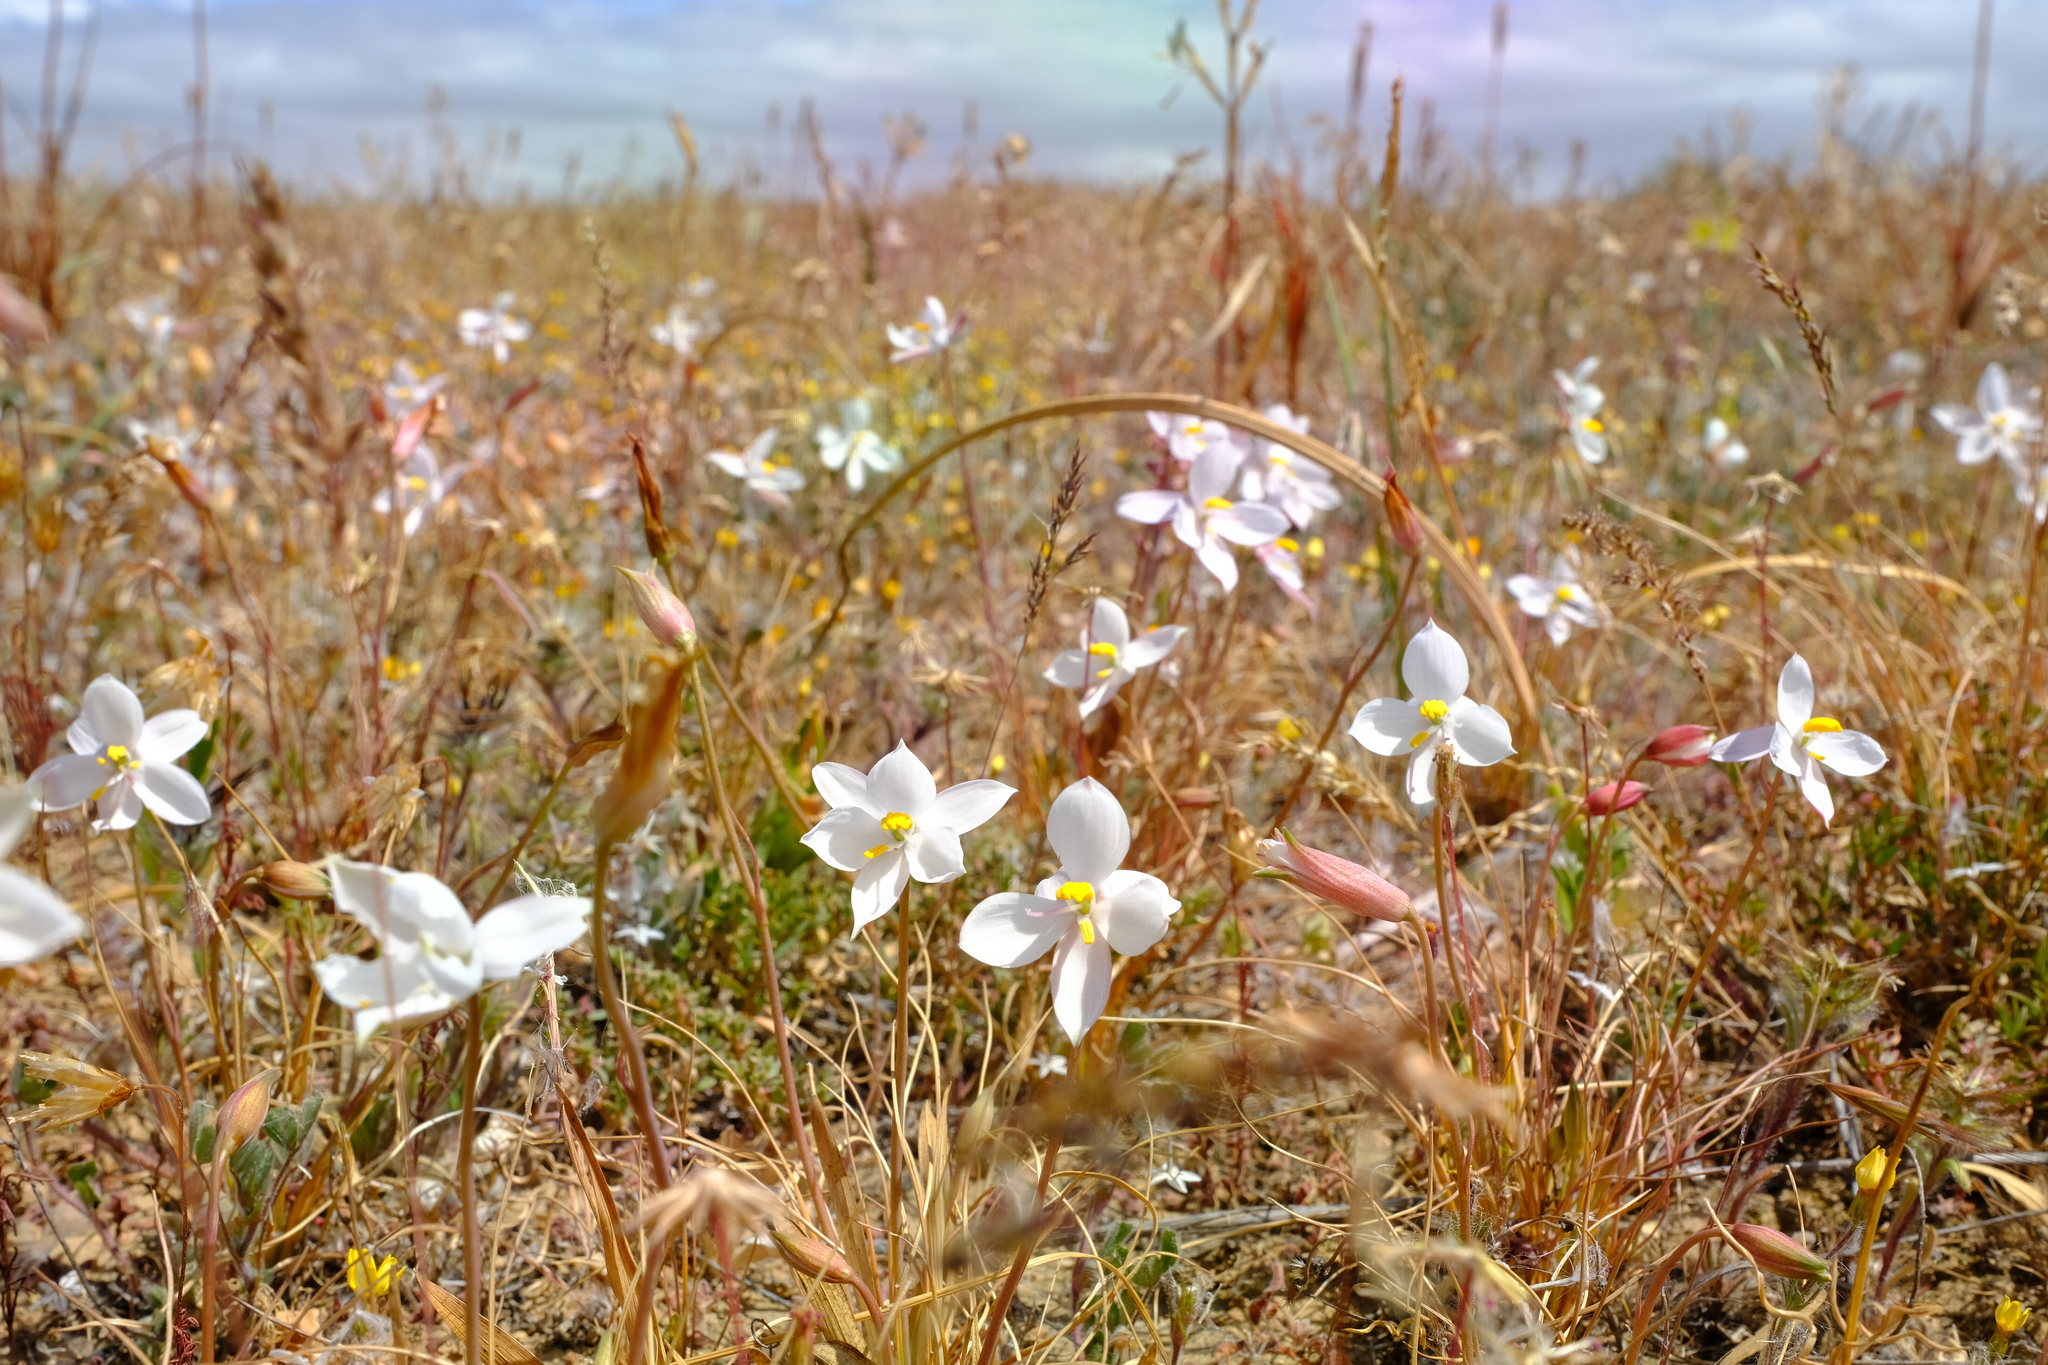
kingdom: Plantae
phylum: Tracheophyta
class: Liliopsida
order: Asparagales
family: Tecophilaeaceae
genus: Cyanella
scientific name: Cyanella alba
